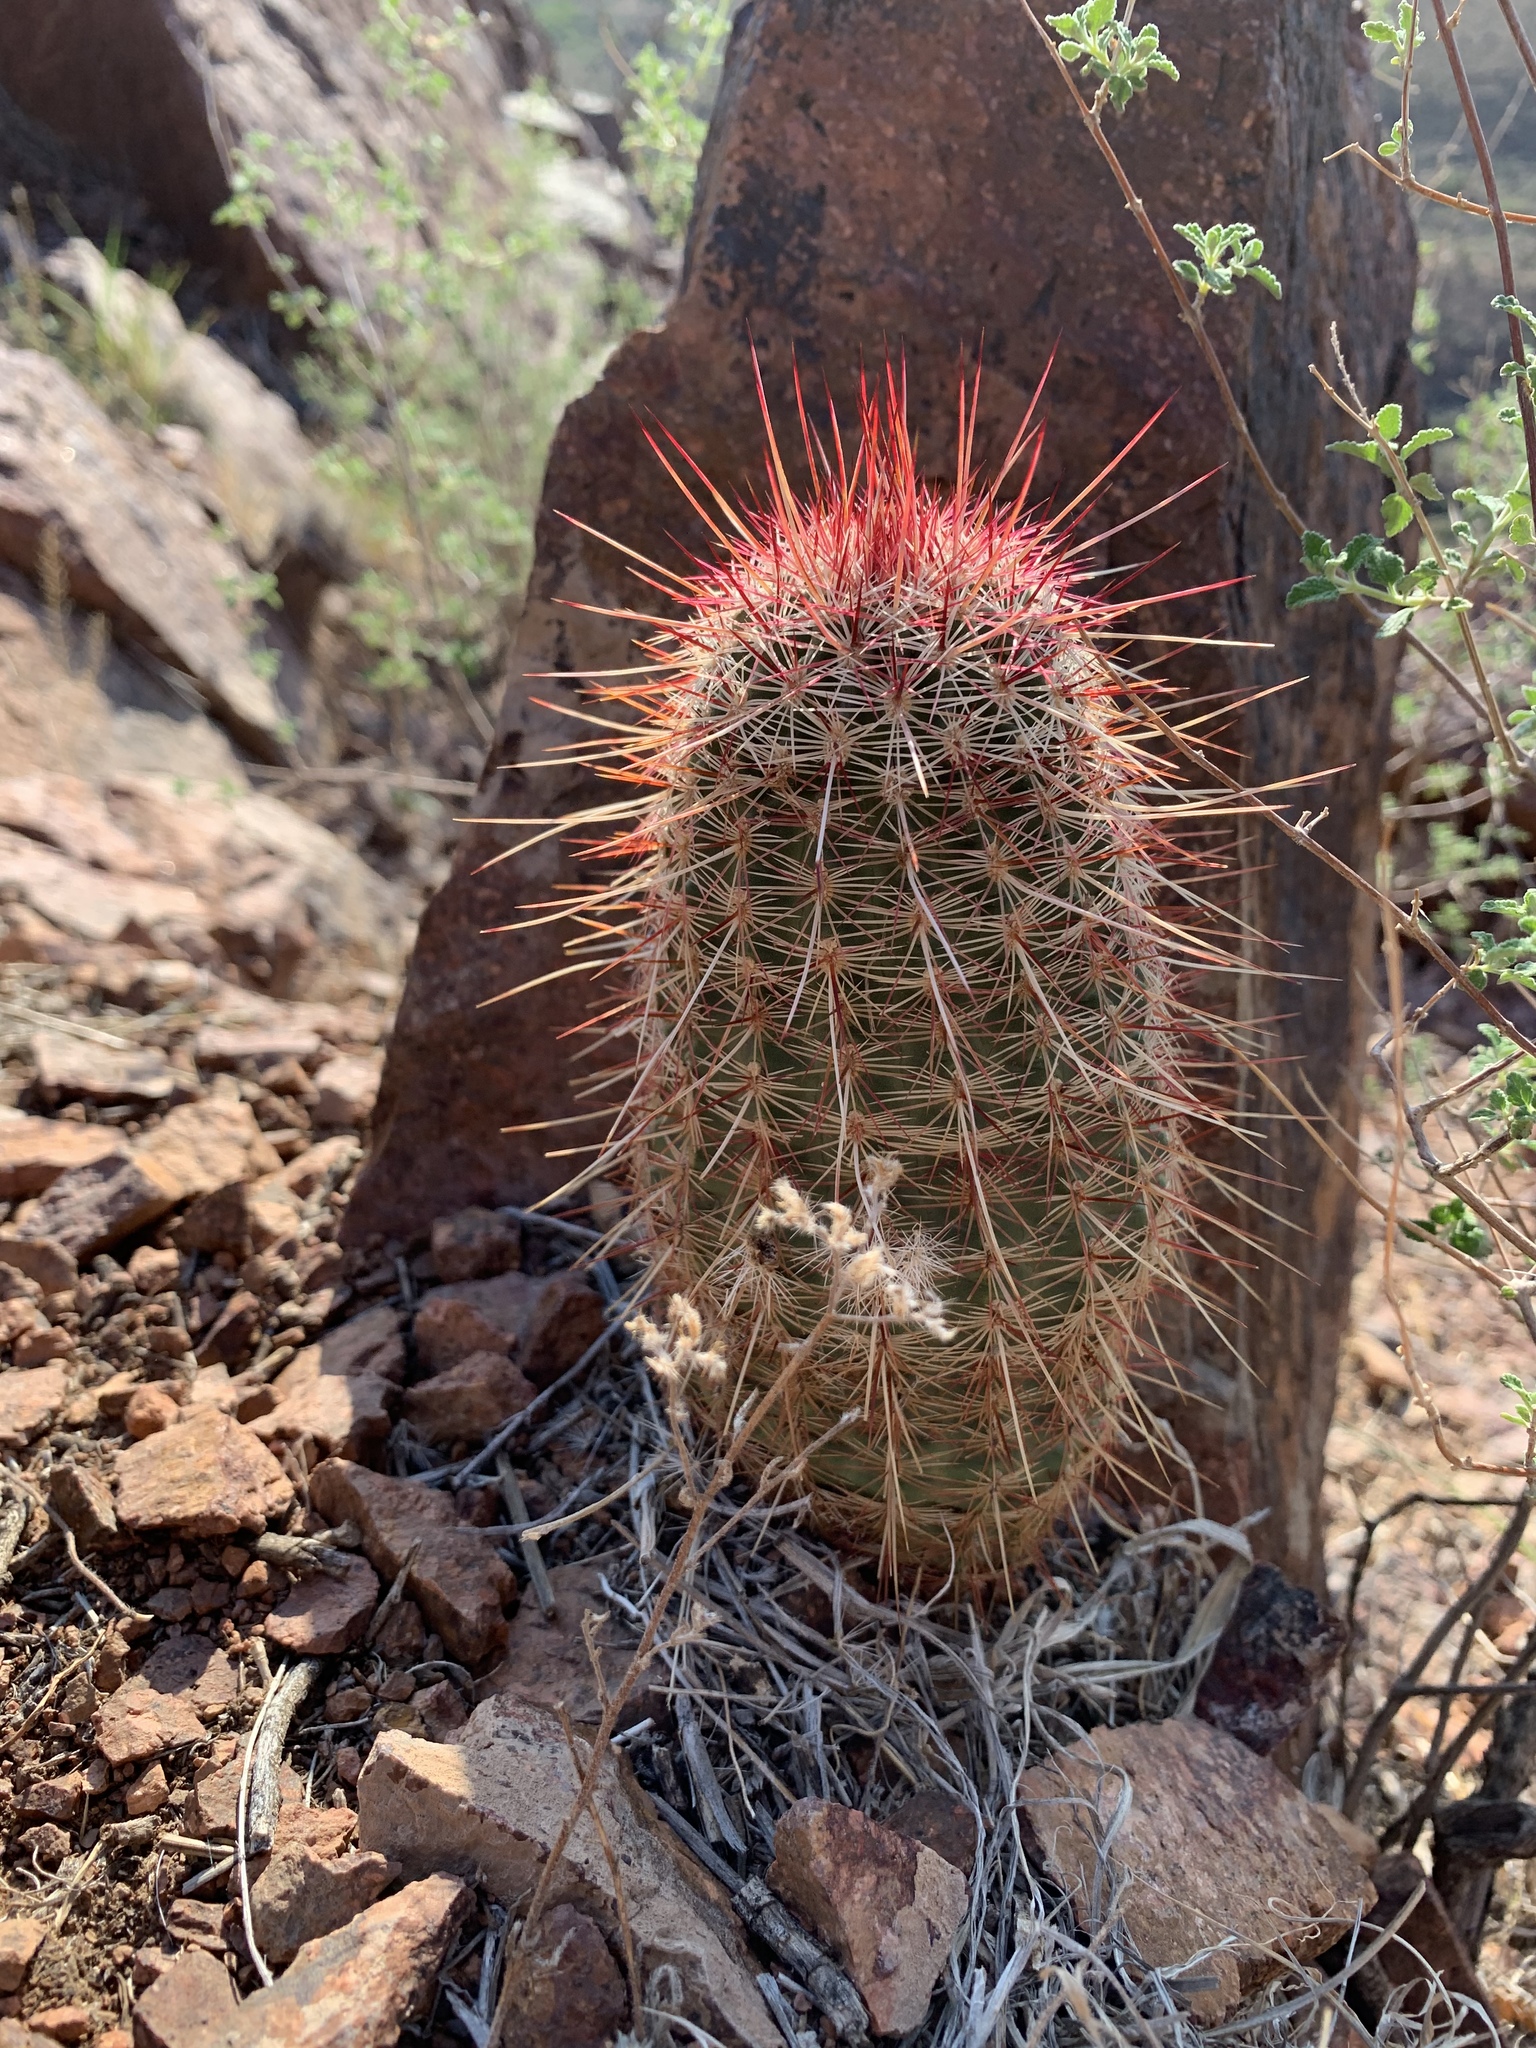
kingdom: Plantae
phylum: Tracheophyta
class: Magnoliopsida
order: Caryophyllales
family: Cactaceae
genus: Echinocereus
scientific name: Echinocereus viridiflorus
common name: Nylon hedgehog cactus
